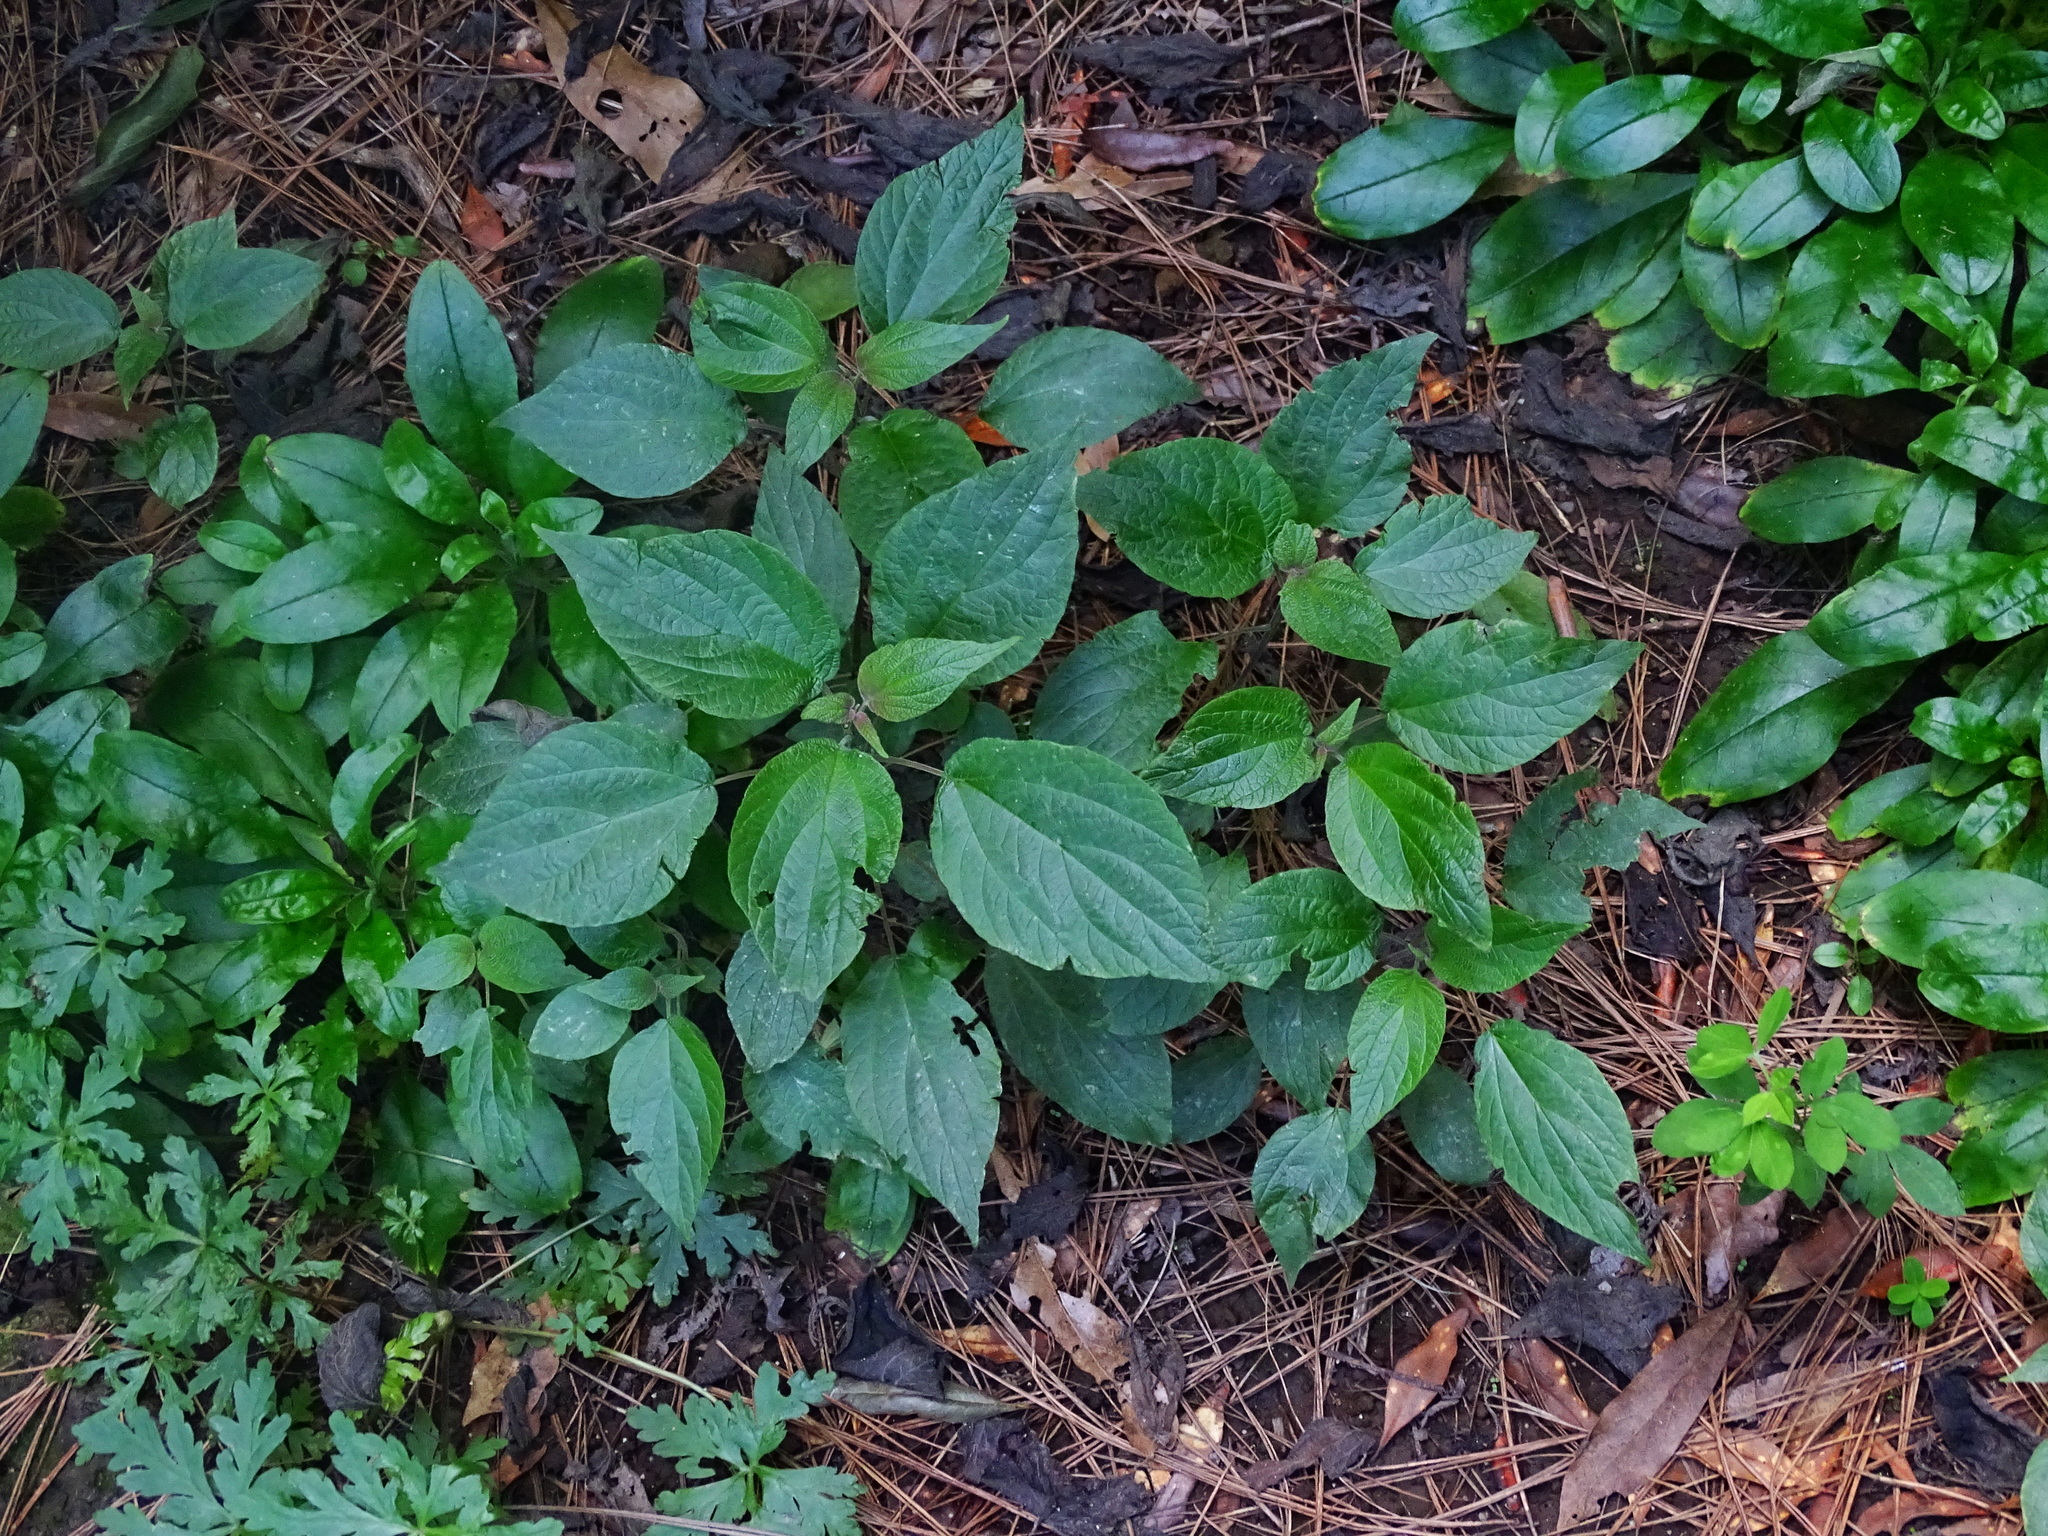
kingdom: Plantae
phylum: Tracheophyta
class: Magnoliopsida
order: Rosales
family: Urticaceae
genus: Gesnouinia
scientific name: Gesnouinia arborea
